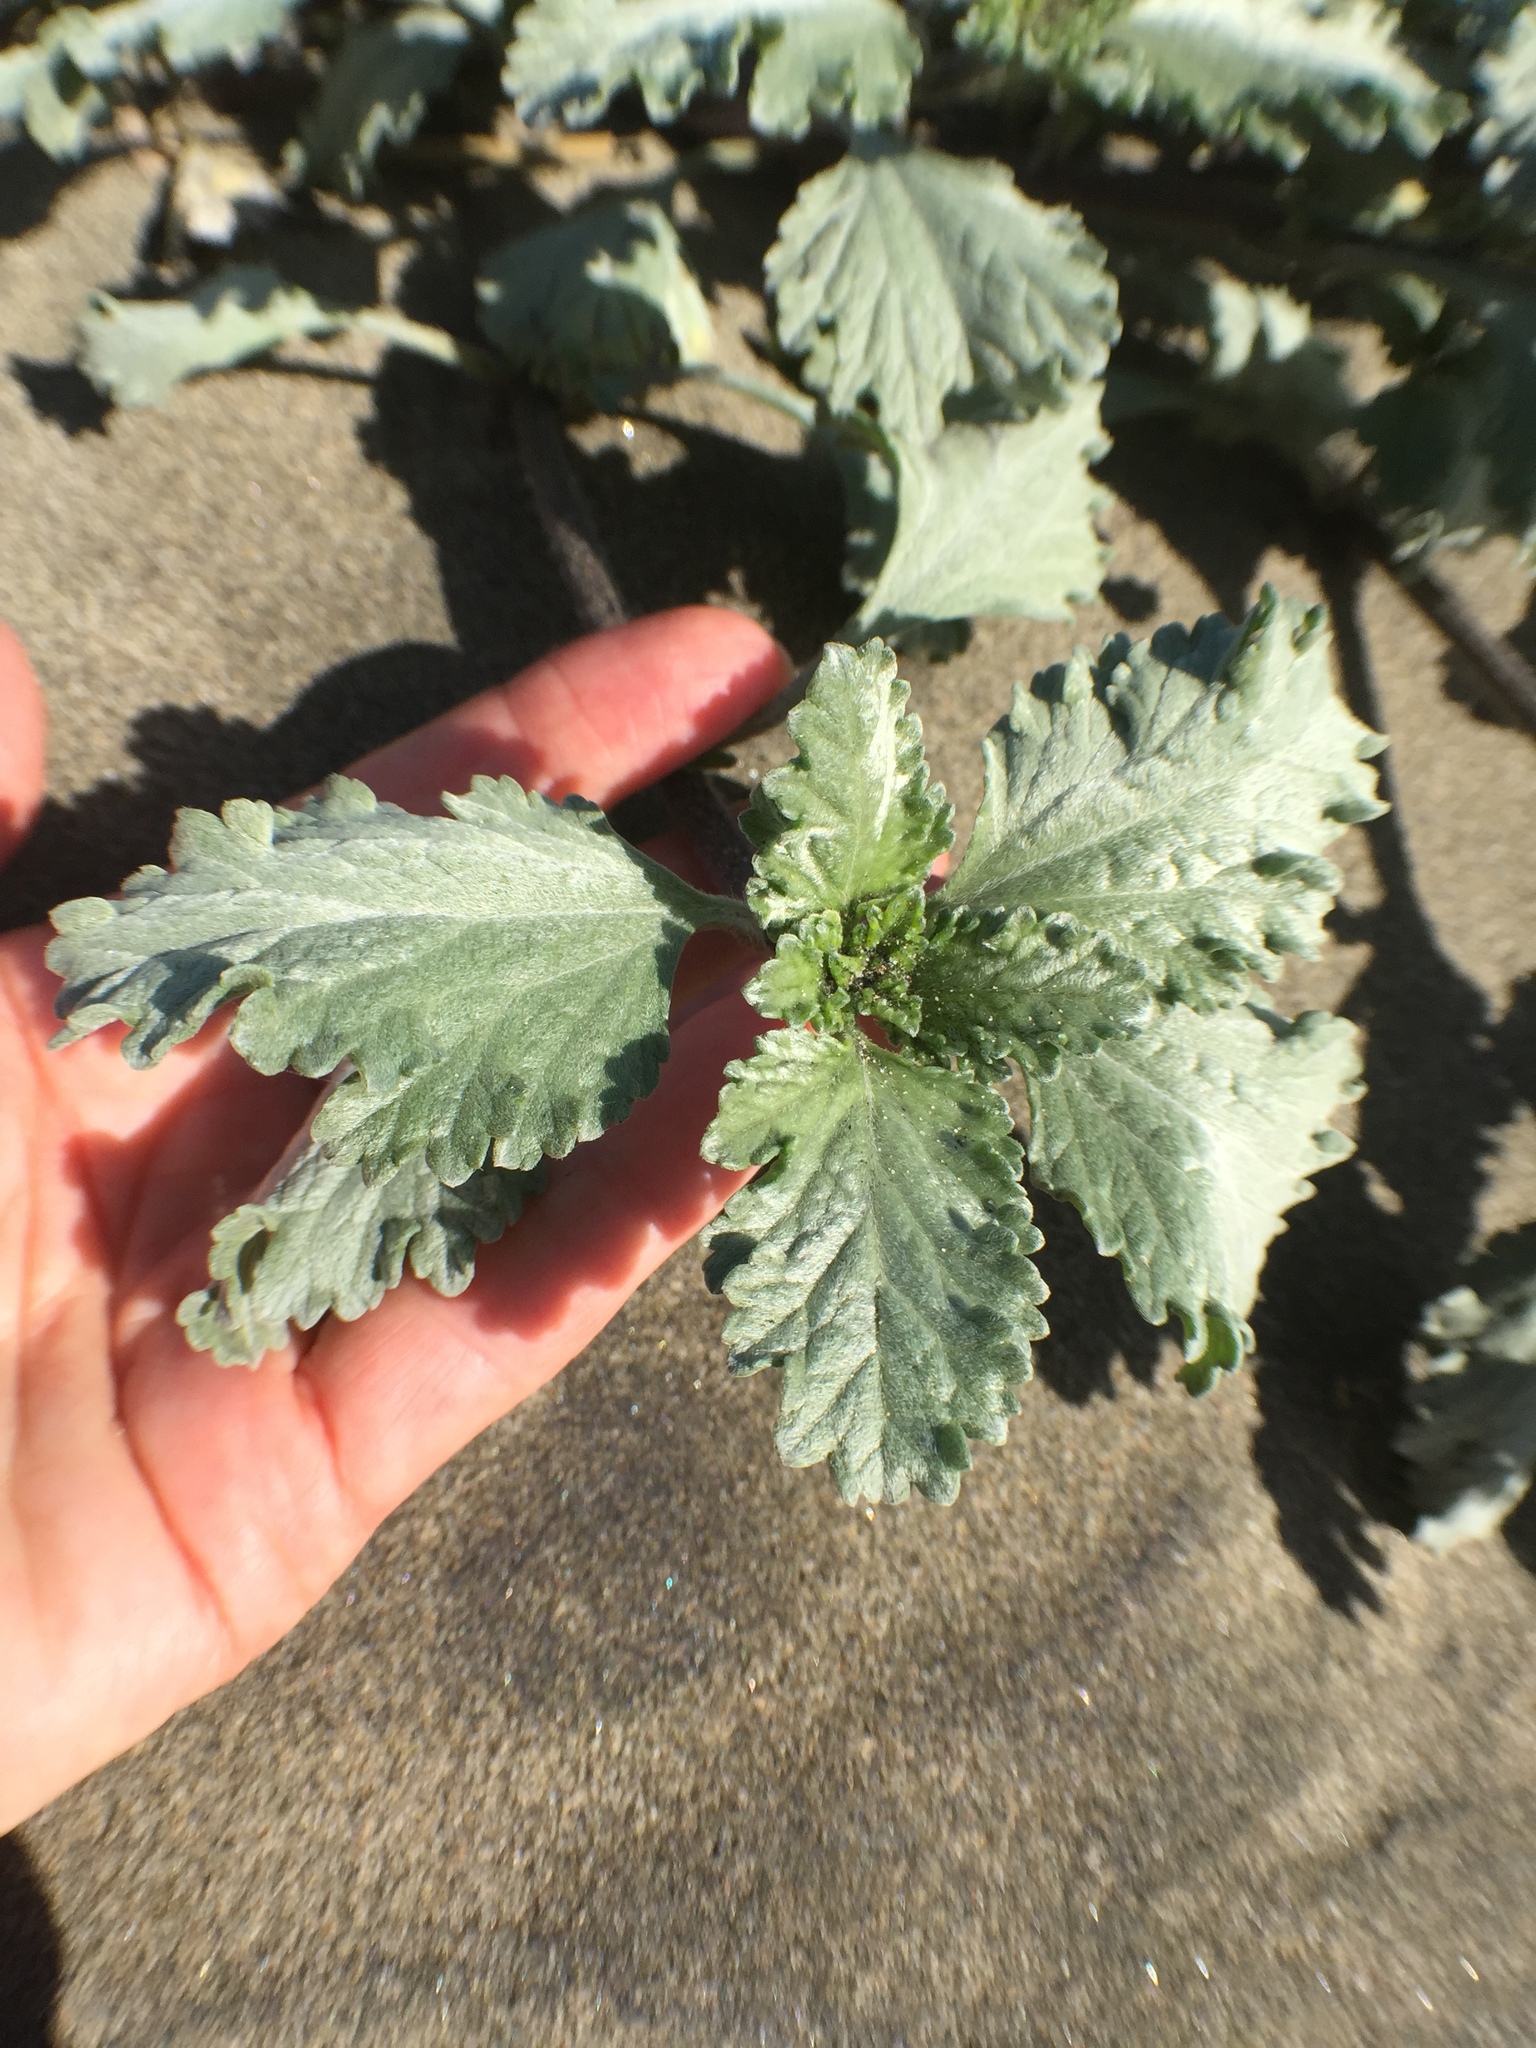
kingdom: Plantae
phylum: Tracheophyta
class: Magnoliopsida
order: Asterales
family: Asteraceae
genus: Ambrosia
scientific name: Ambrosia chamissonis
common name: Beachbur
